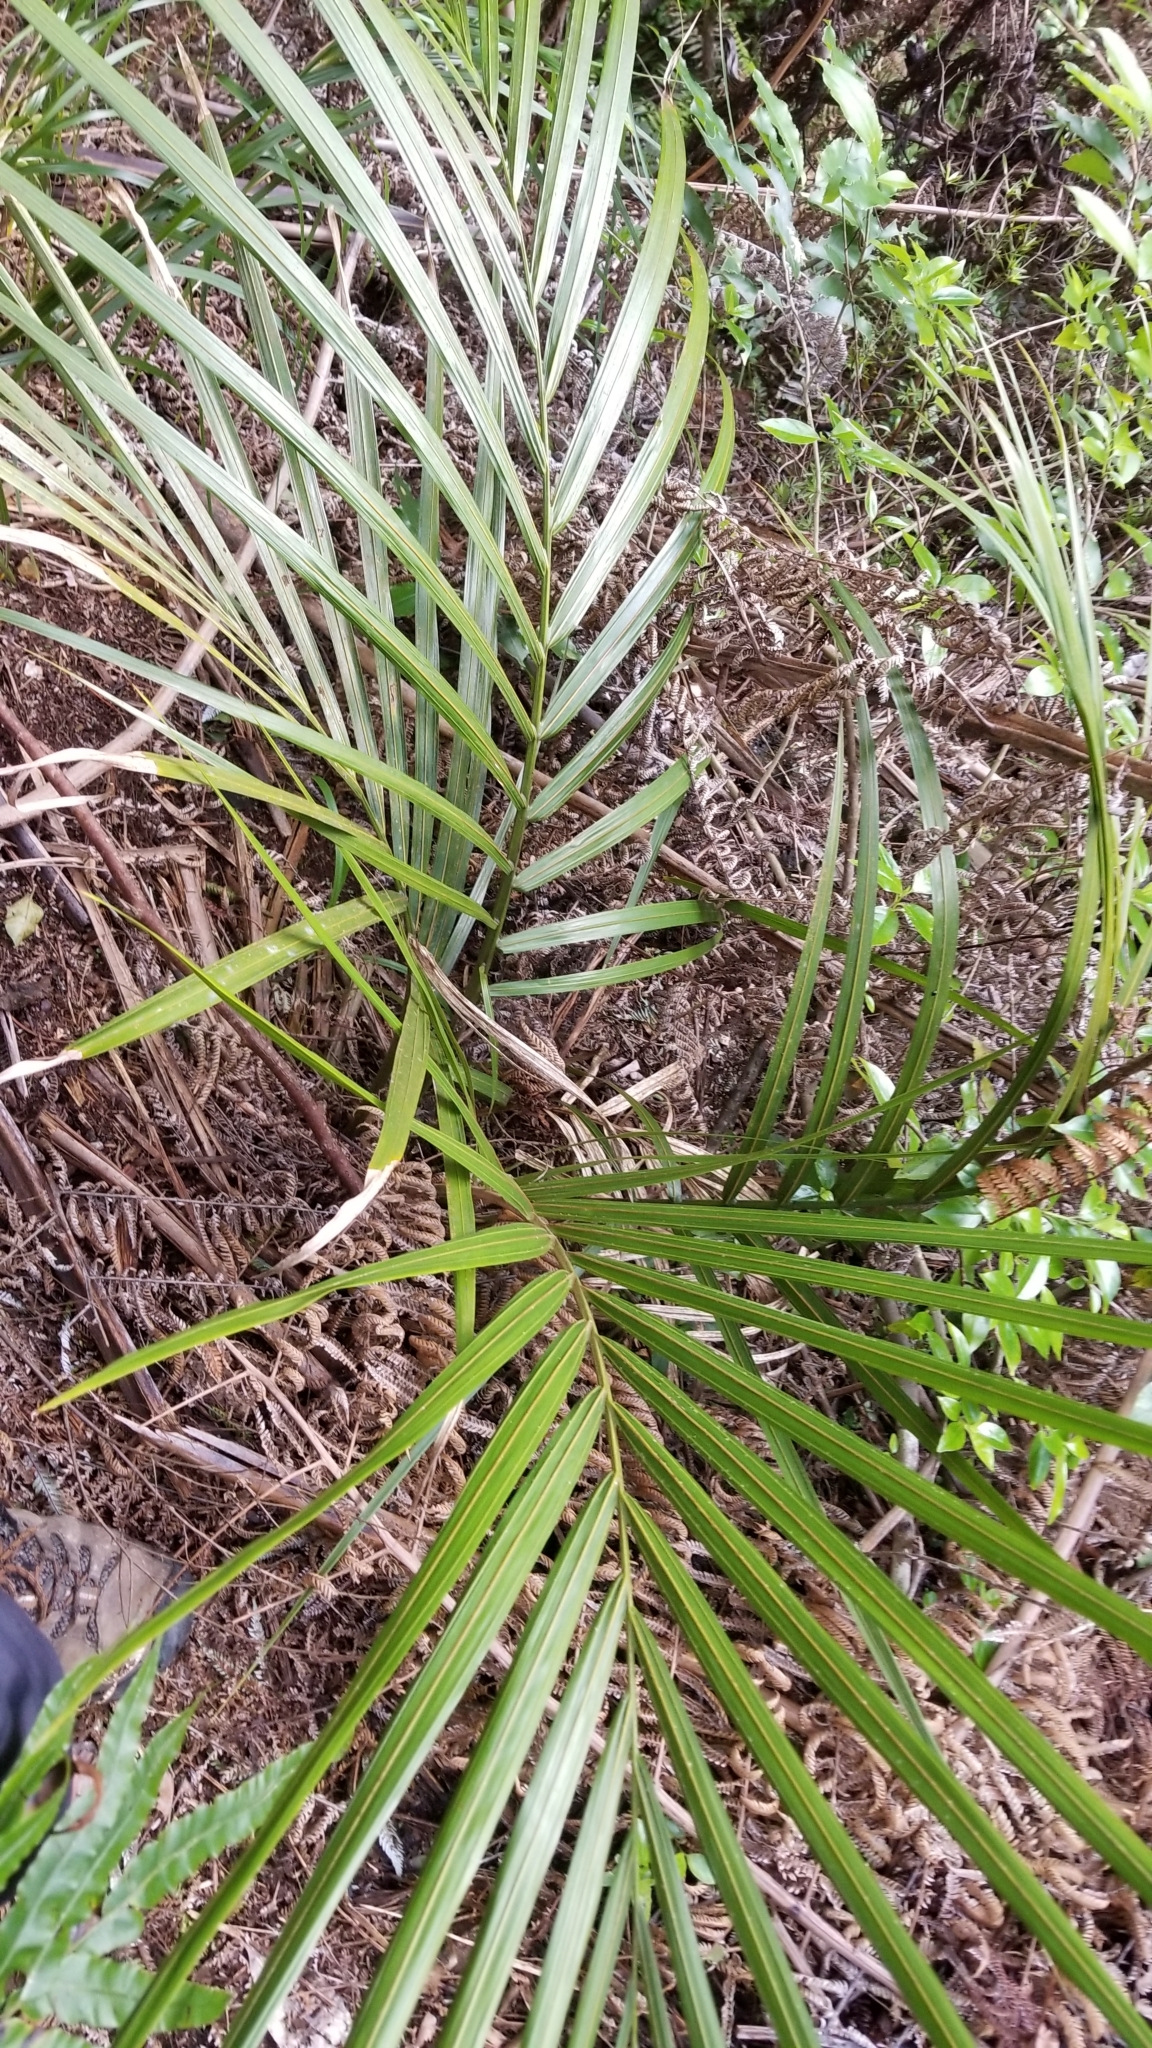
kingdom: Plantae
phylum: Tracheophyta
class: Liliopsida
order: Arecales
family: Arecaceae
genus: Rhopalostylis
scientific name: Rhopalostylis sapida
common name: Feather-duster palm
